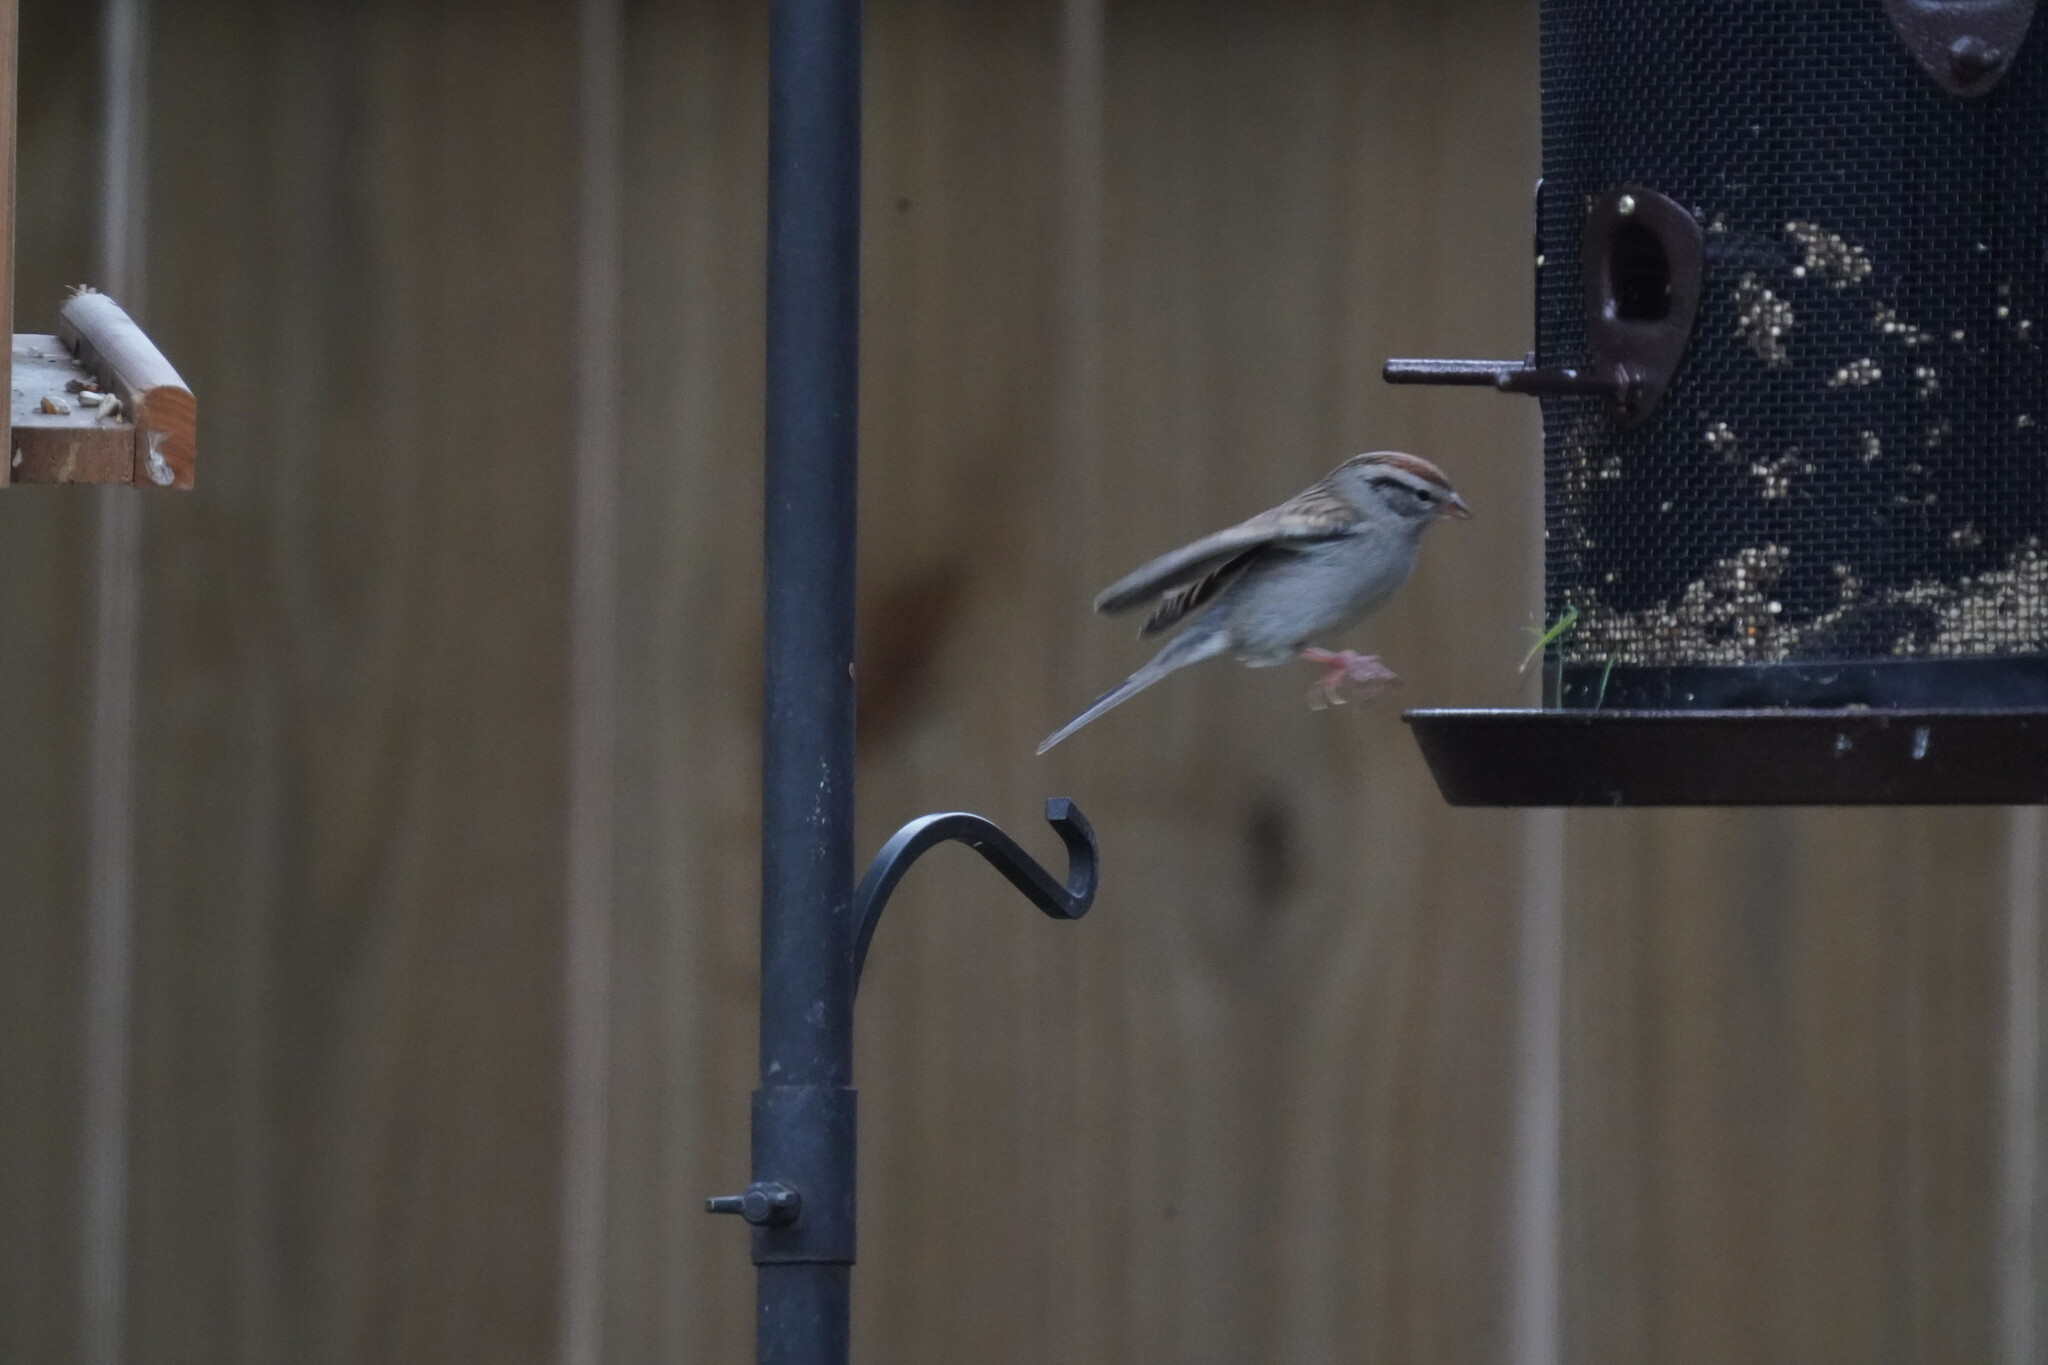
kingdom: Animalia
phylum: Chordata
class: Aves
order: Passeriformes
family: Passerellidae
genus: Spizella
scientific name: Spizella passerina
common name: Chipping sparrow
